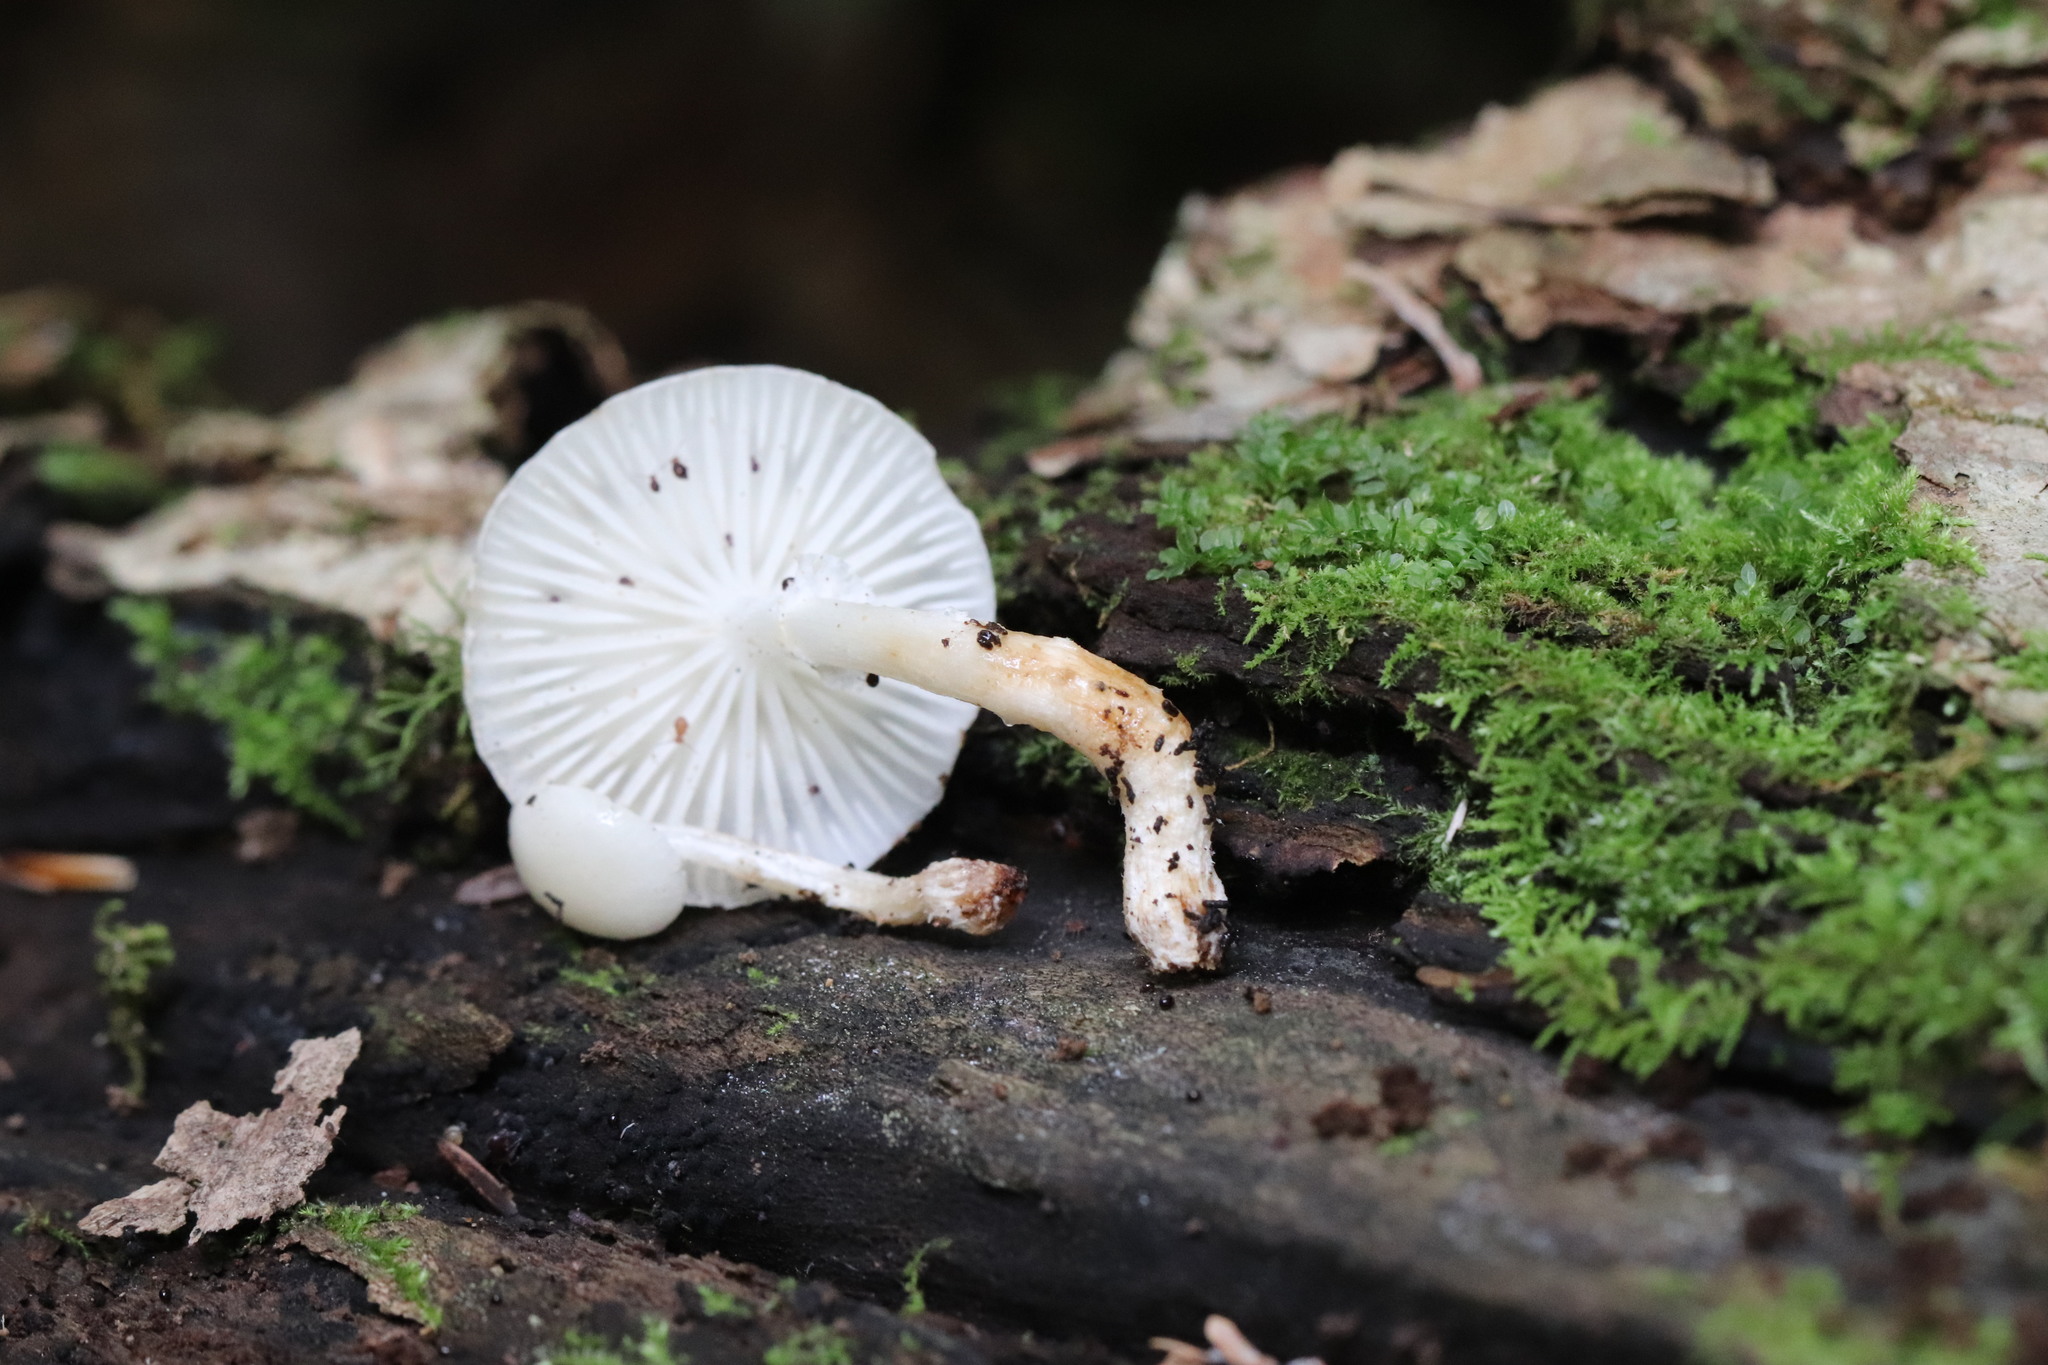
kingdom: Fungi
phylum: Basidiomycota
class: Agaricomycetes
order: Agaricales
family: Physalacriaceae
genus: Mucidula
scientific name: Mucidula mucida
